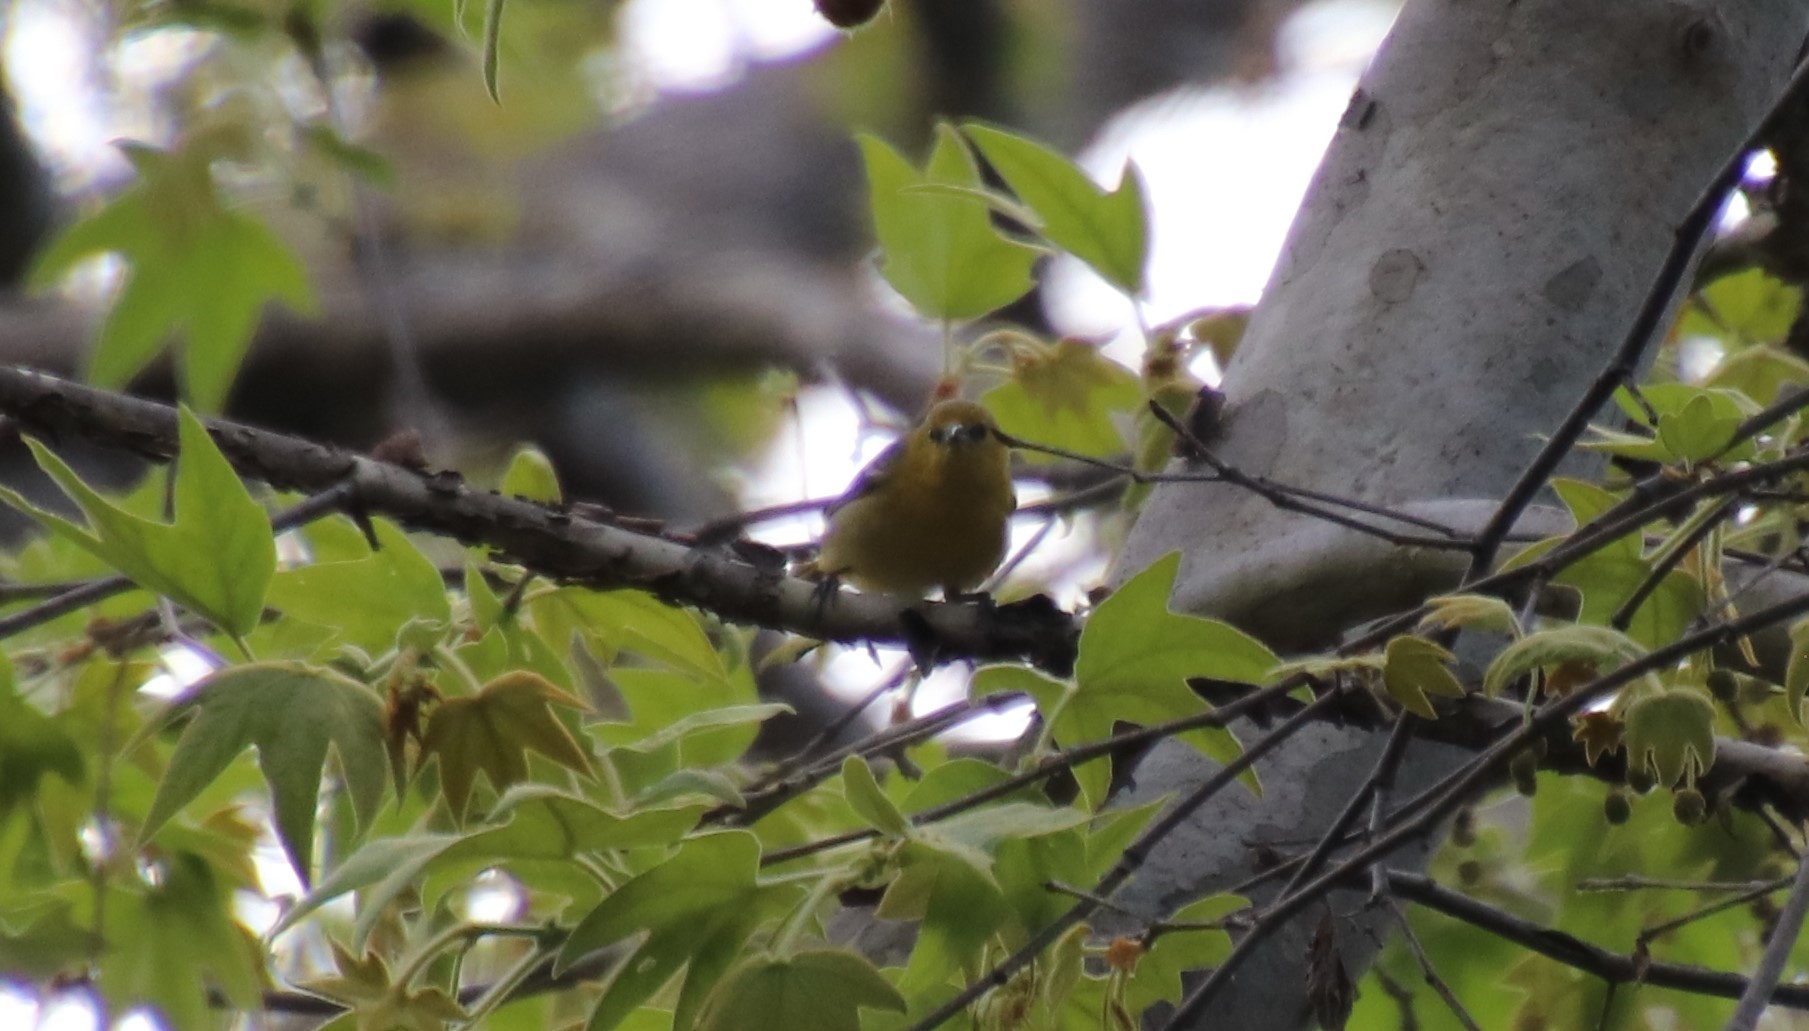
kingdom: Animalia
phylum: Chordata
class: Aves
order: Passeriformes
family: Icteridae
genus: Icterus
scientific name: Icterus cucullatus
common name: Hooded oriole
